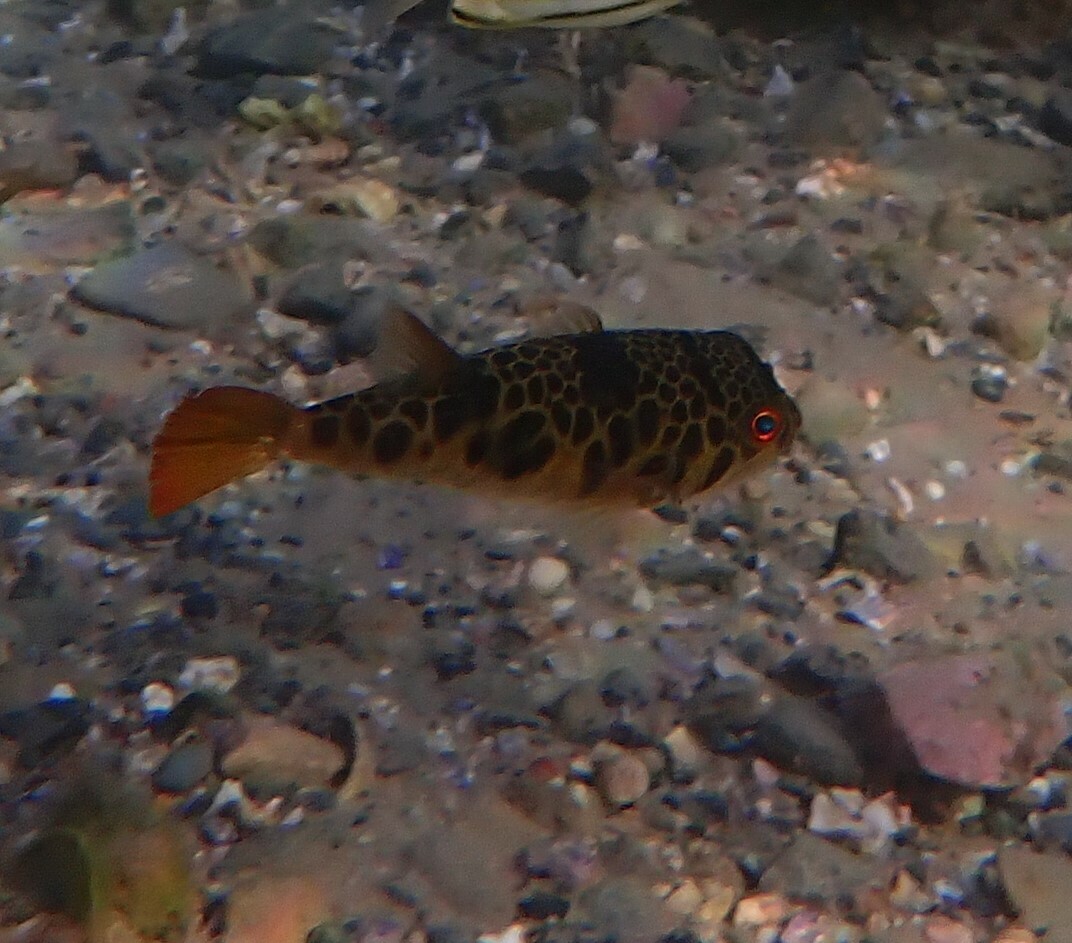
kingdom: Animalia
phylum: Chordata
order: Tetraodontiformes
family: Tetraodontidae
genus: Tetractenos
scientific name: Tetractenos glaber
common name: Smooth toadfish
